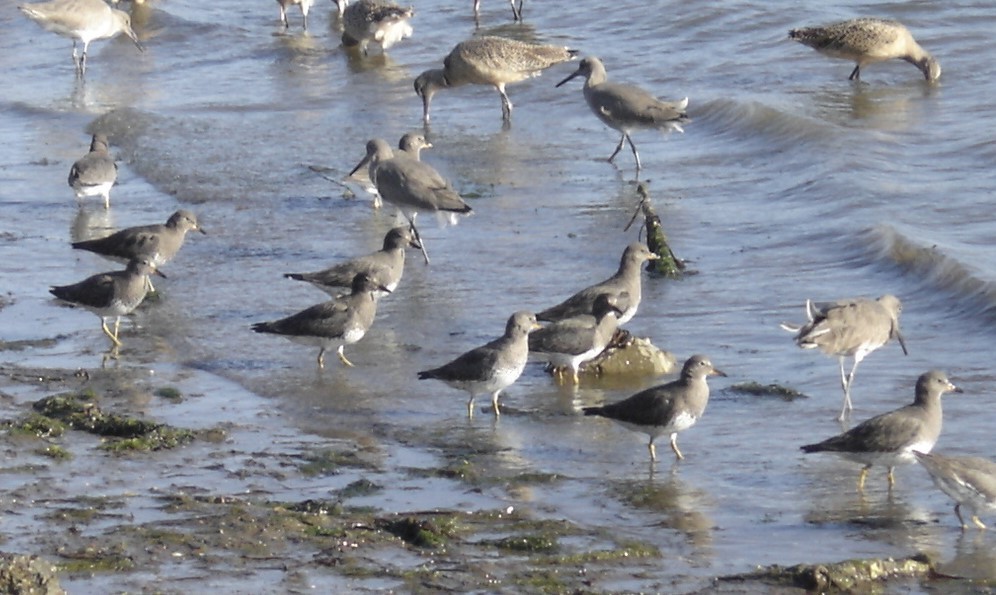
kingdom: Animalia
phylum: Chordata
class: Aves
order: Charadriiformes
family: Scolopacidae
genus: Calidris
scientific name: Calidris virgata
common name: Surfbird
